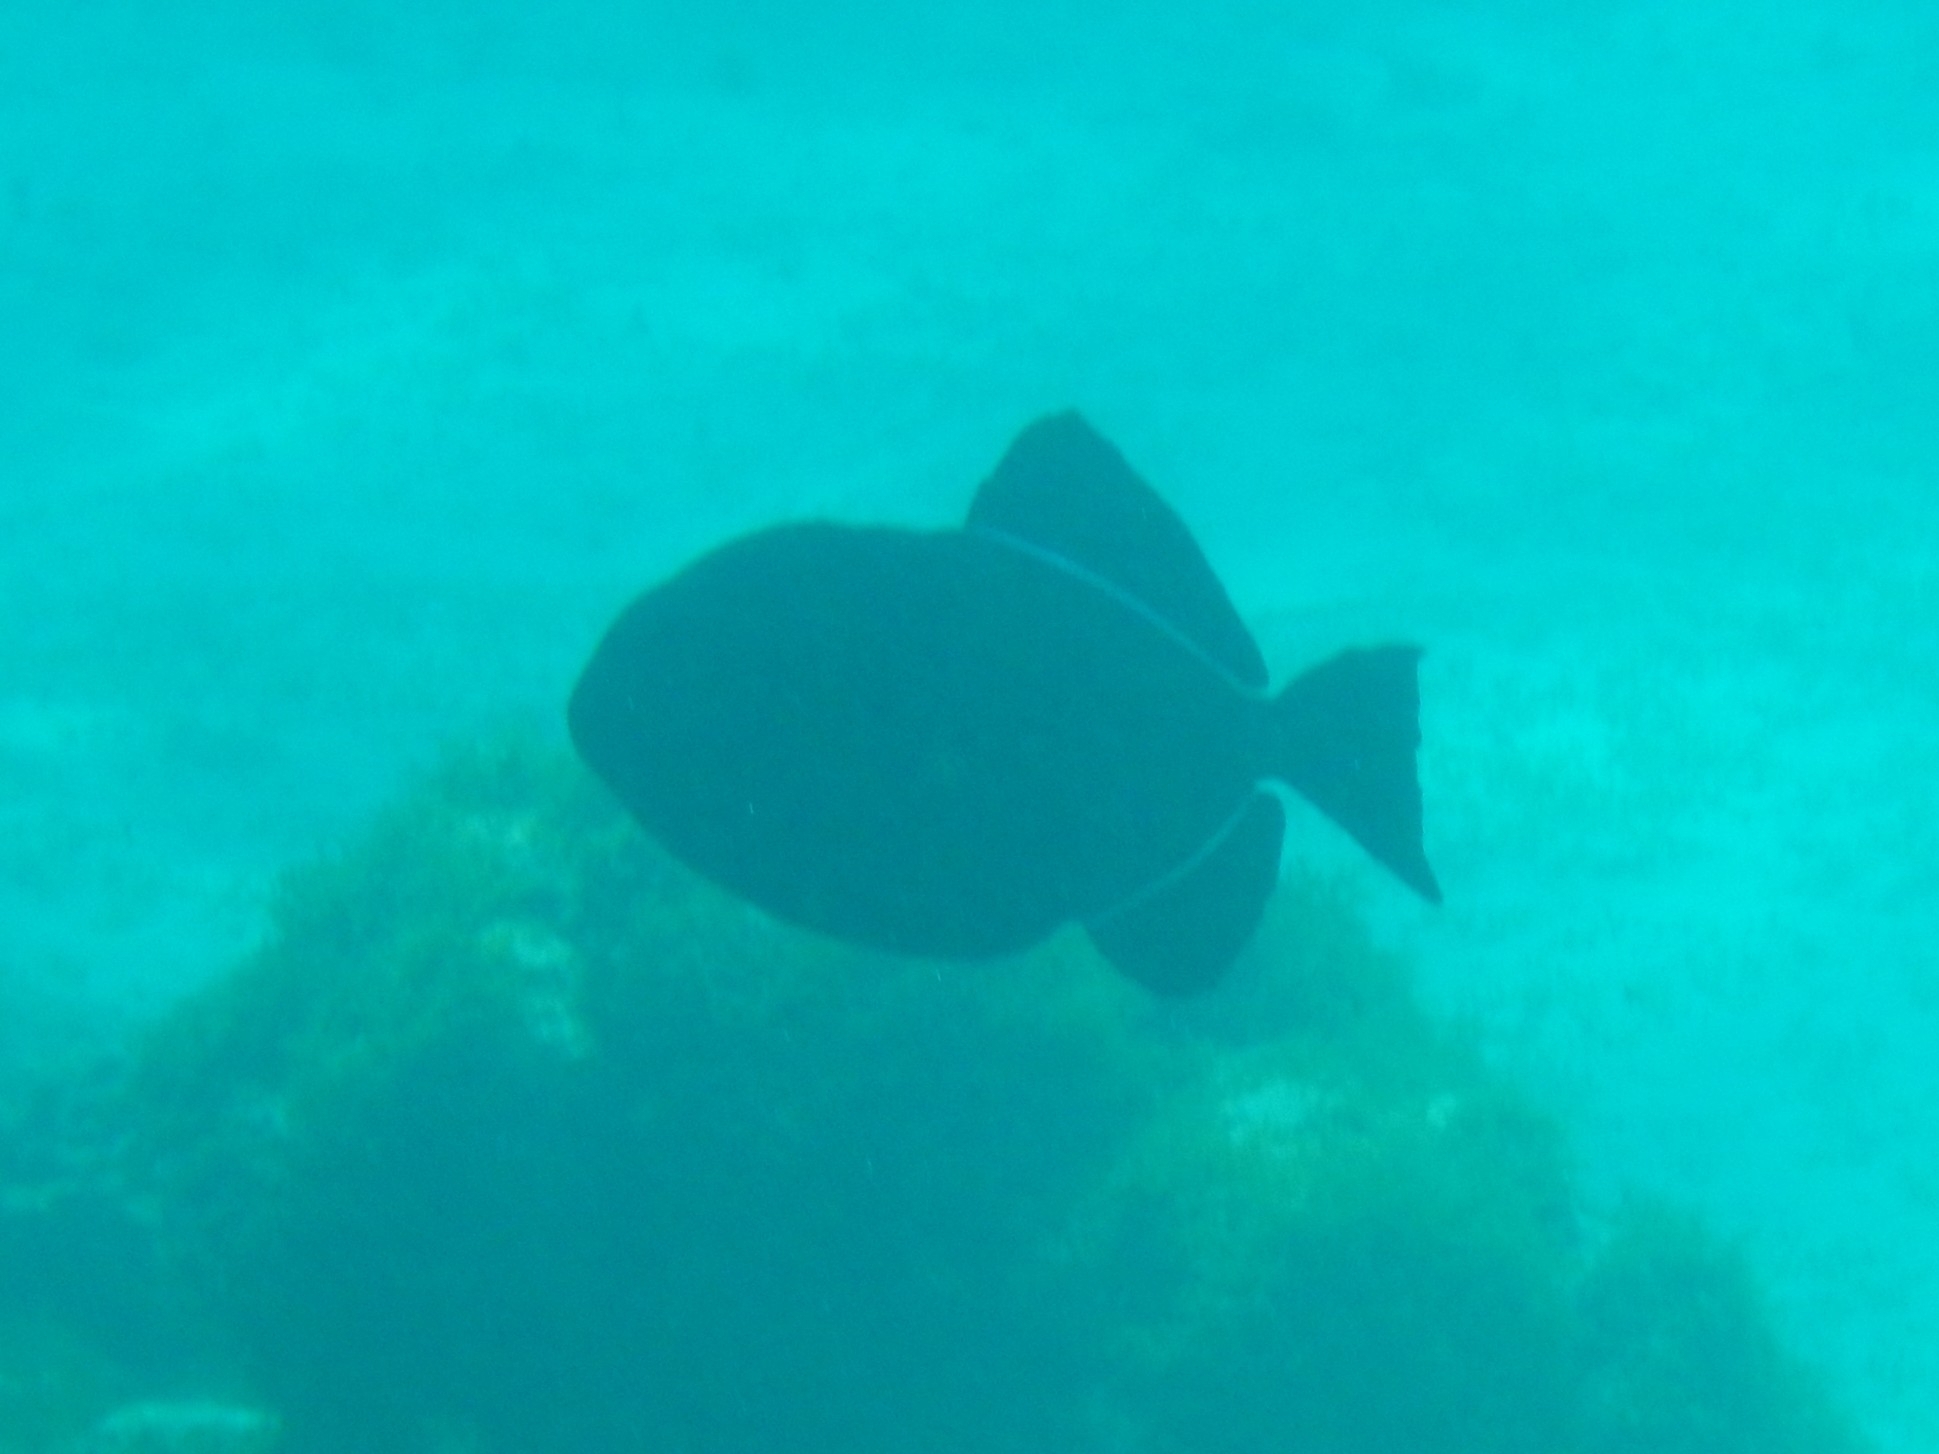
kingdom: Animalia
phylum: Chordata
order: Tetraodontiformes
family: Balistidae
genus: Melichthys
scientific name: Melichthys niger
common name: Black durgon
